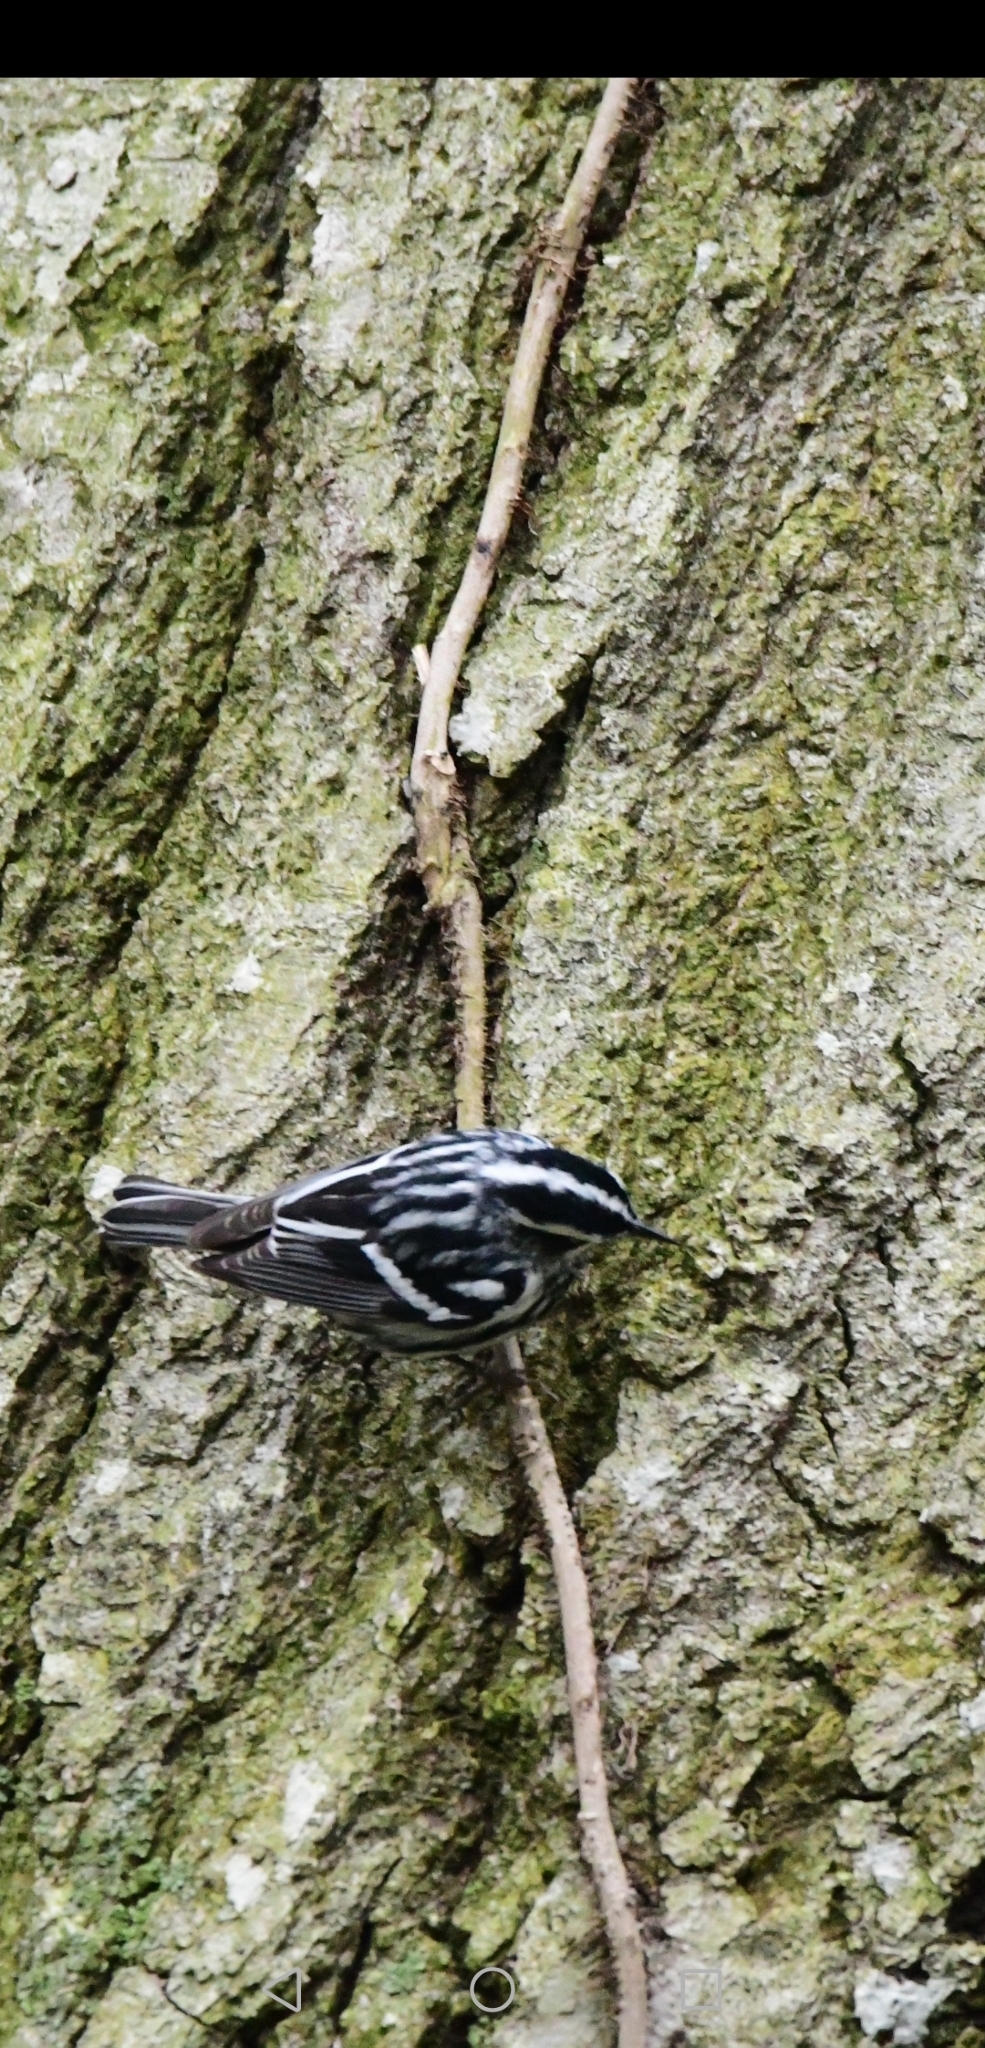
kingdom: Animalia
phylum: Chordata
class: Aves
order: Passeriformes
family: Parulidae
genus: Mniotilta
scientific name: Mniotilta varia
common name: Black-and-white warbler
